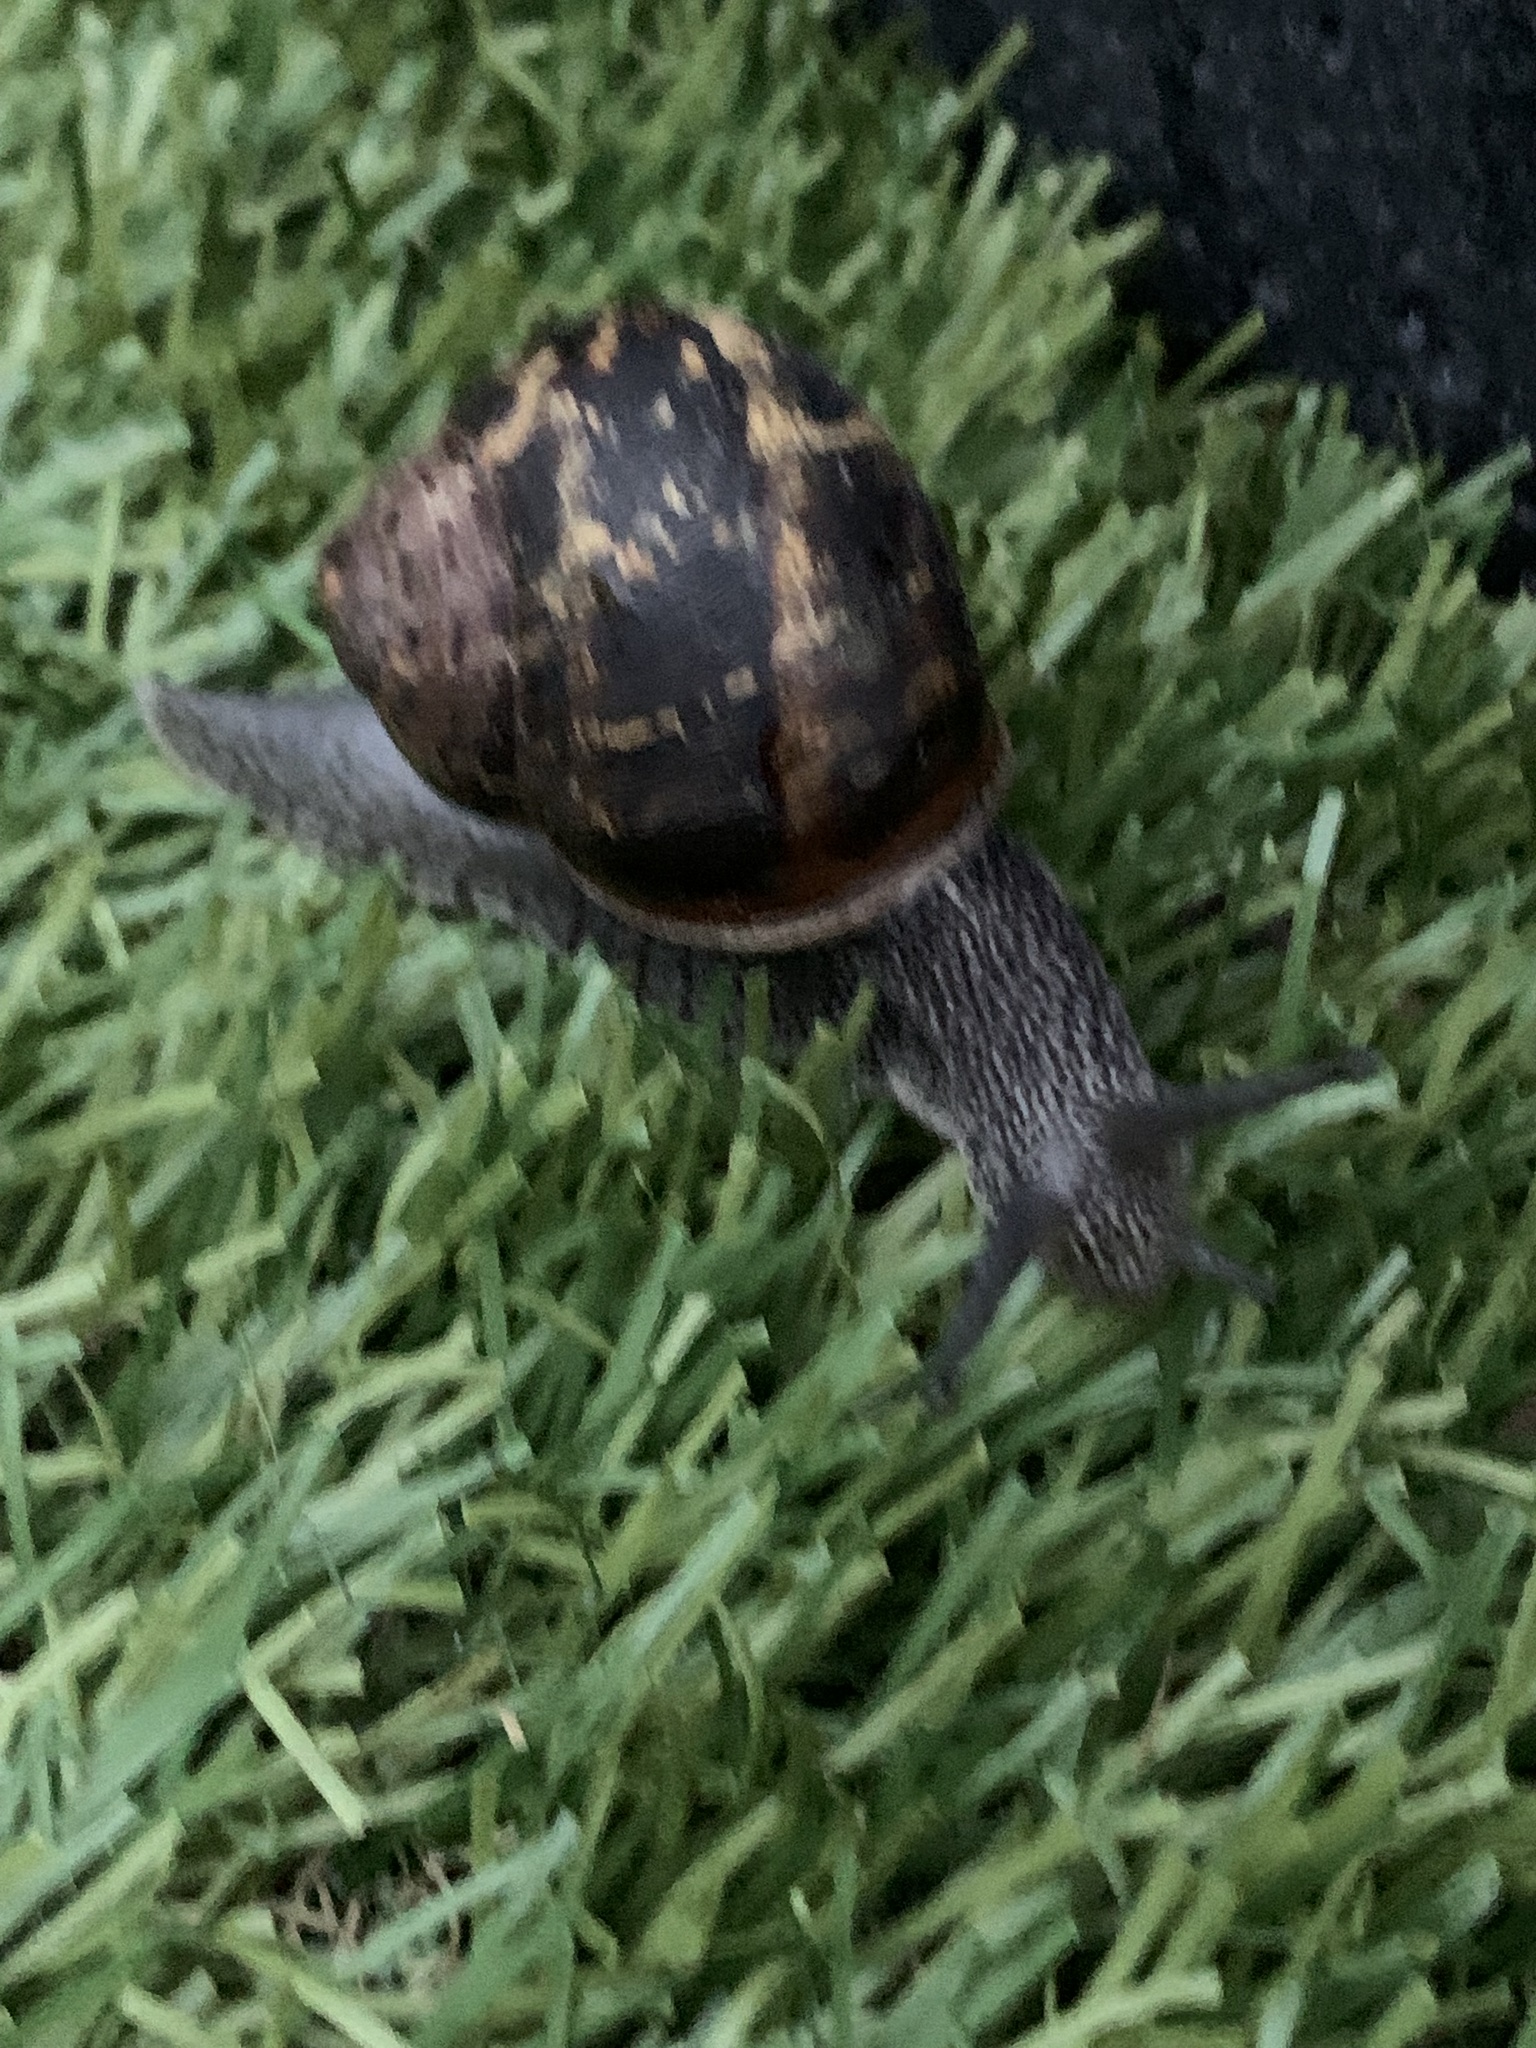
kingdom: Animalia
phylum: Mollusca
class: Gastropoda
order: Stylommatophora
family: Helicidae
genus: Cornu
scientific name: Cornu aspersum
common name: Brown garden snail
